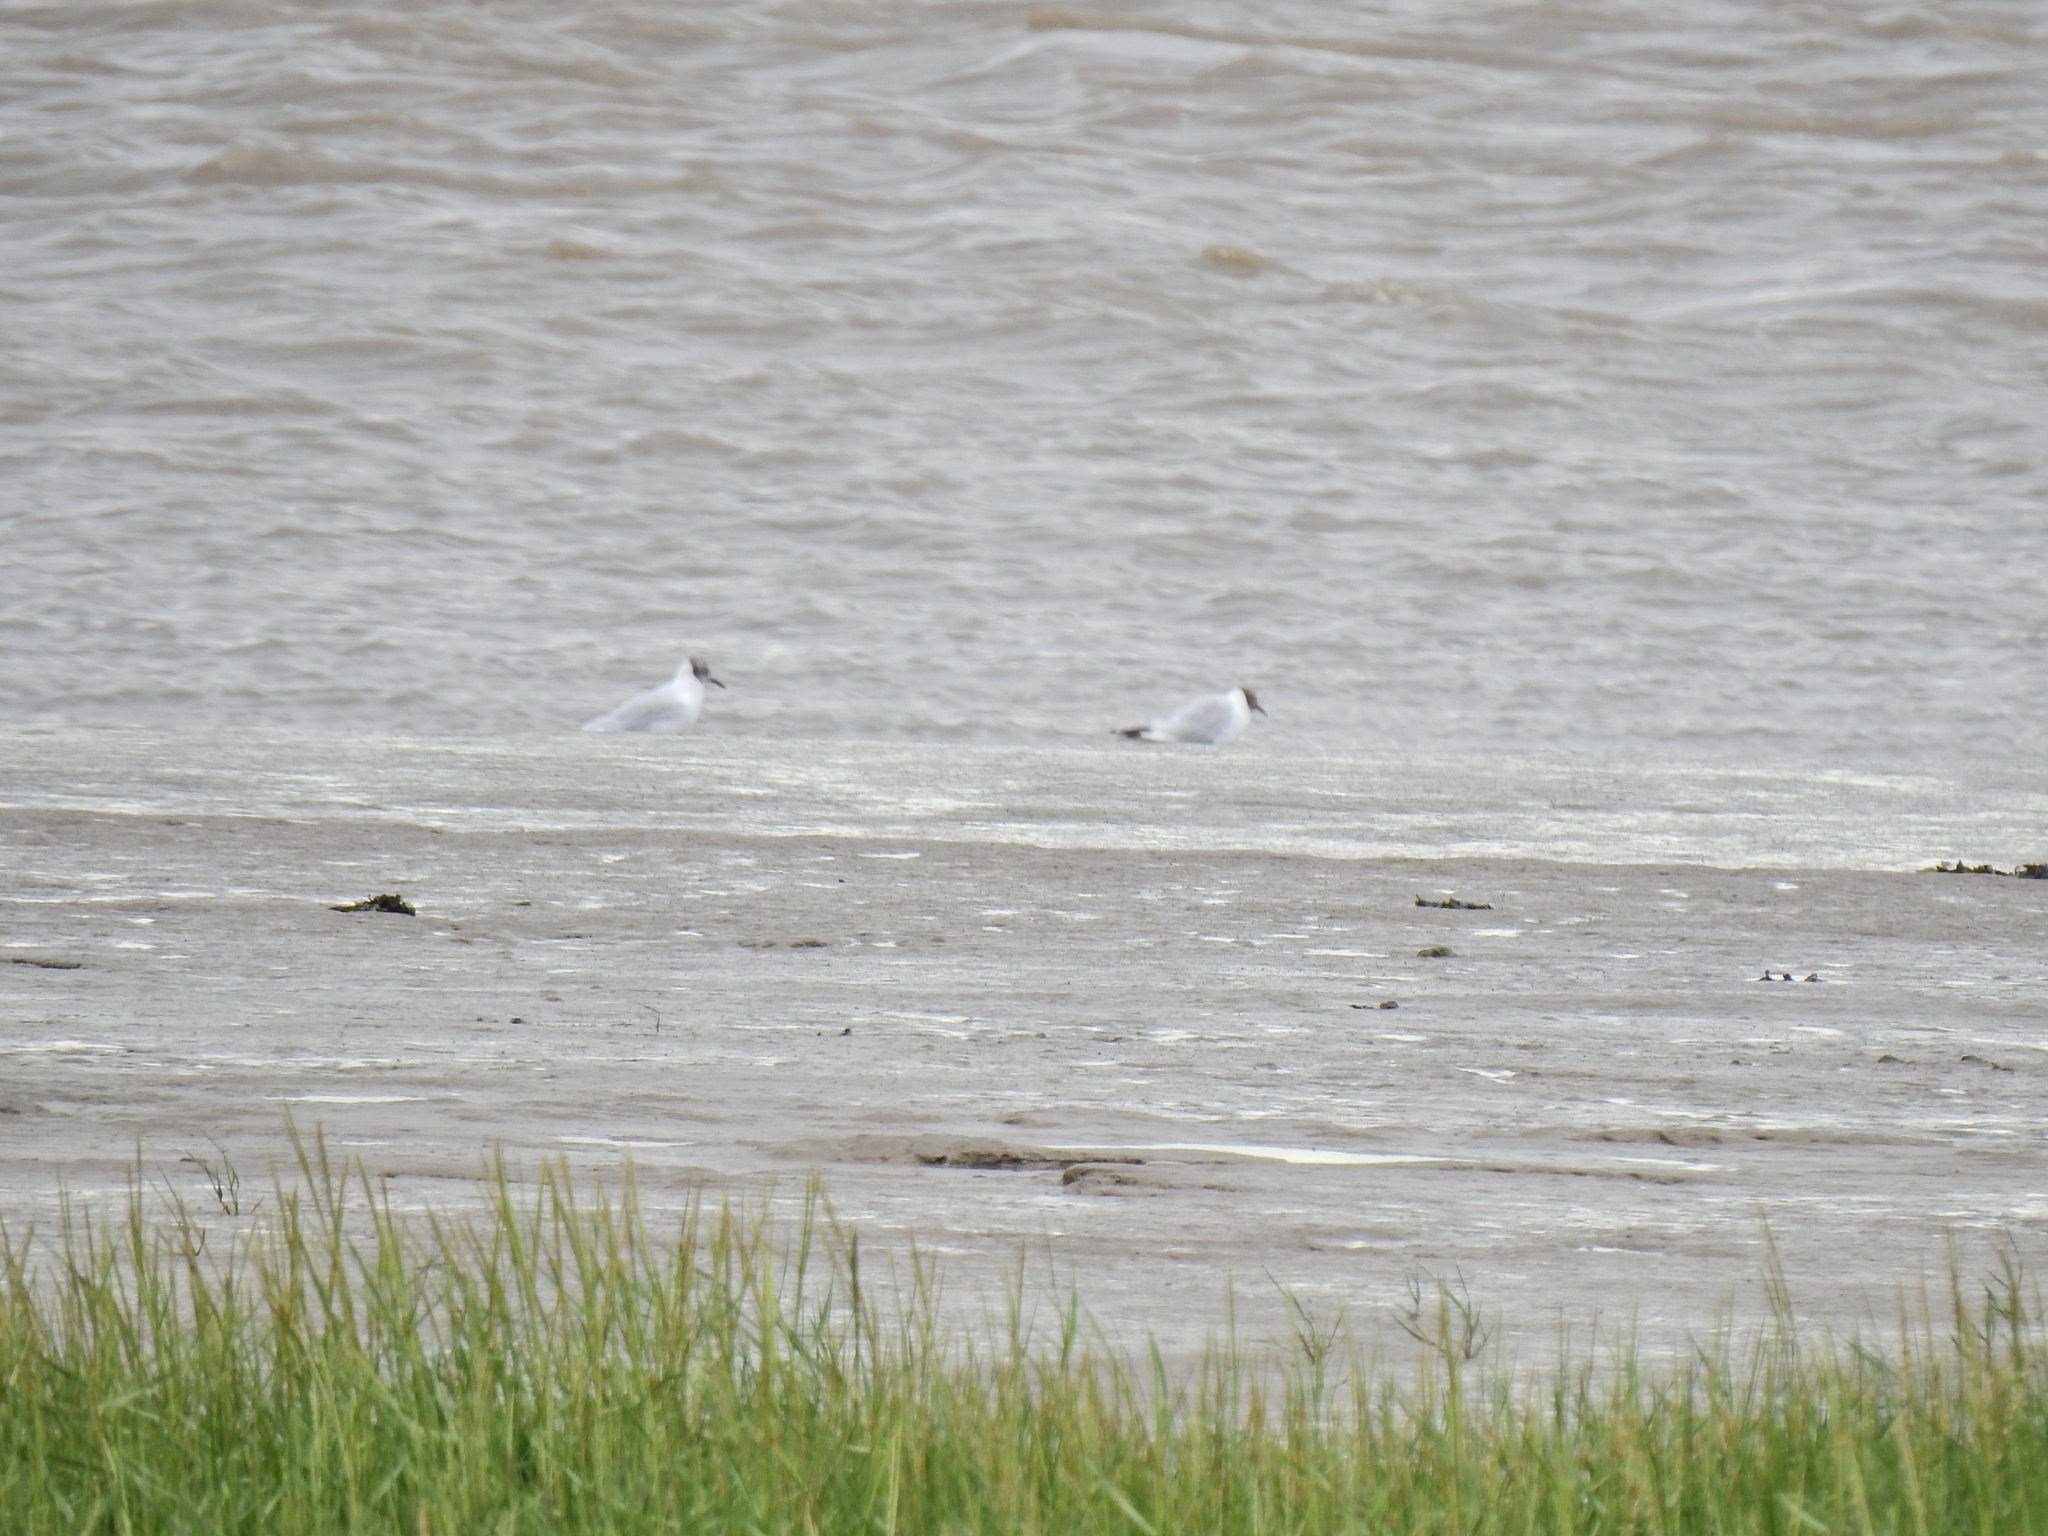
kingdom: Animalia
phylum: Chordata
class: Aves
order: Charadriiformes
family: Laridae
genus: Chroicocephalus
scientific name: Chroicocephalus ridibundus
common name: Black-headed gull
